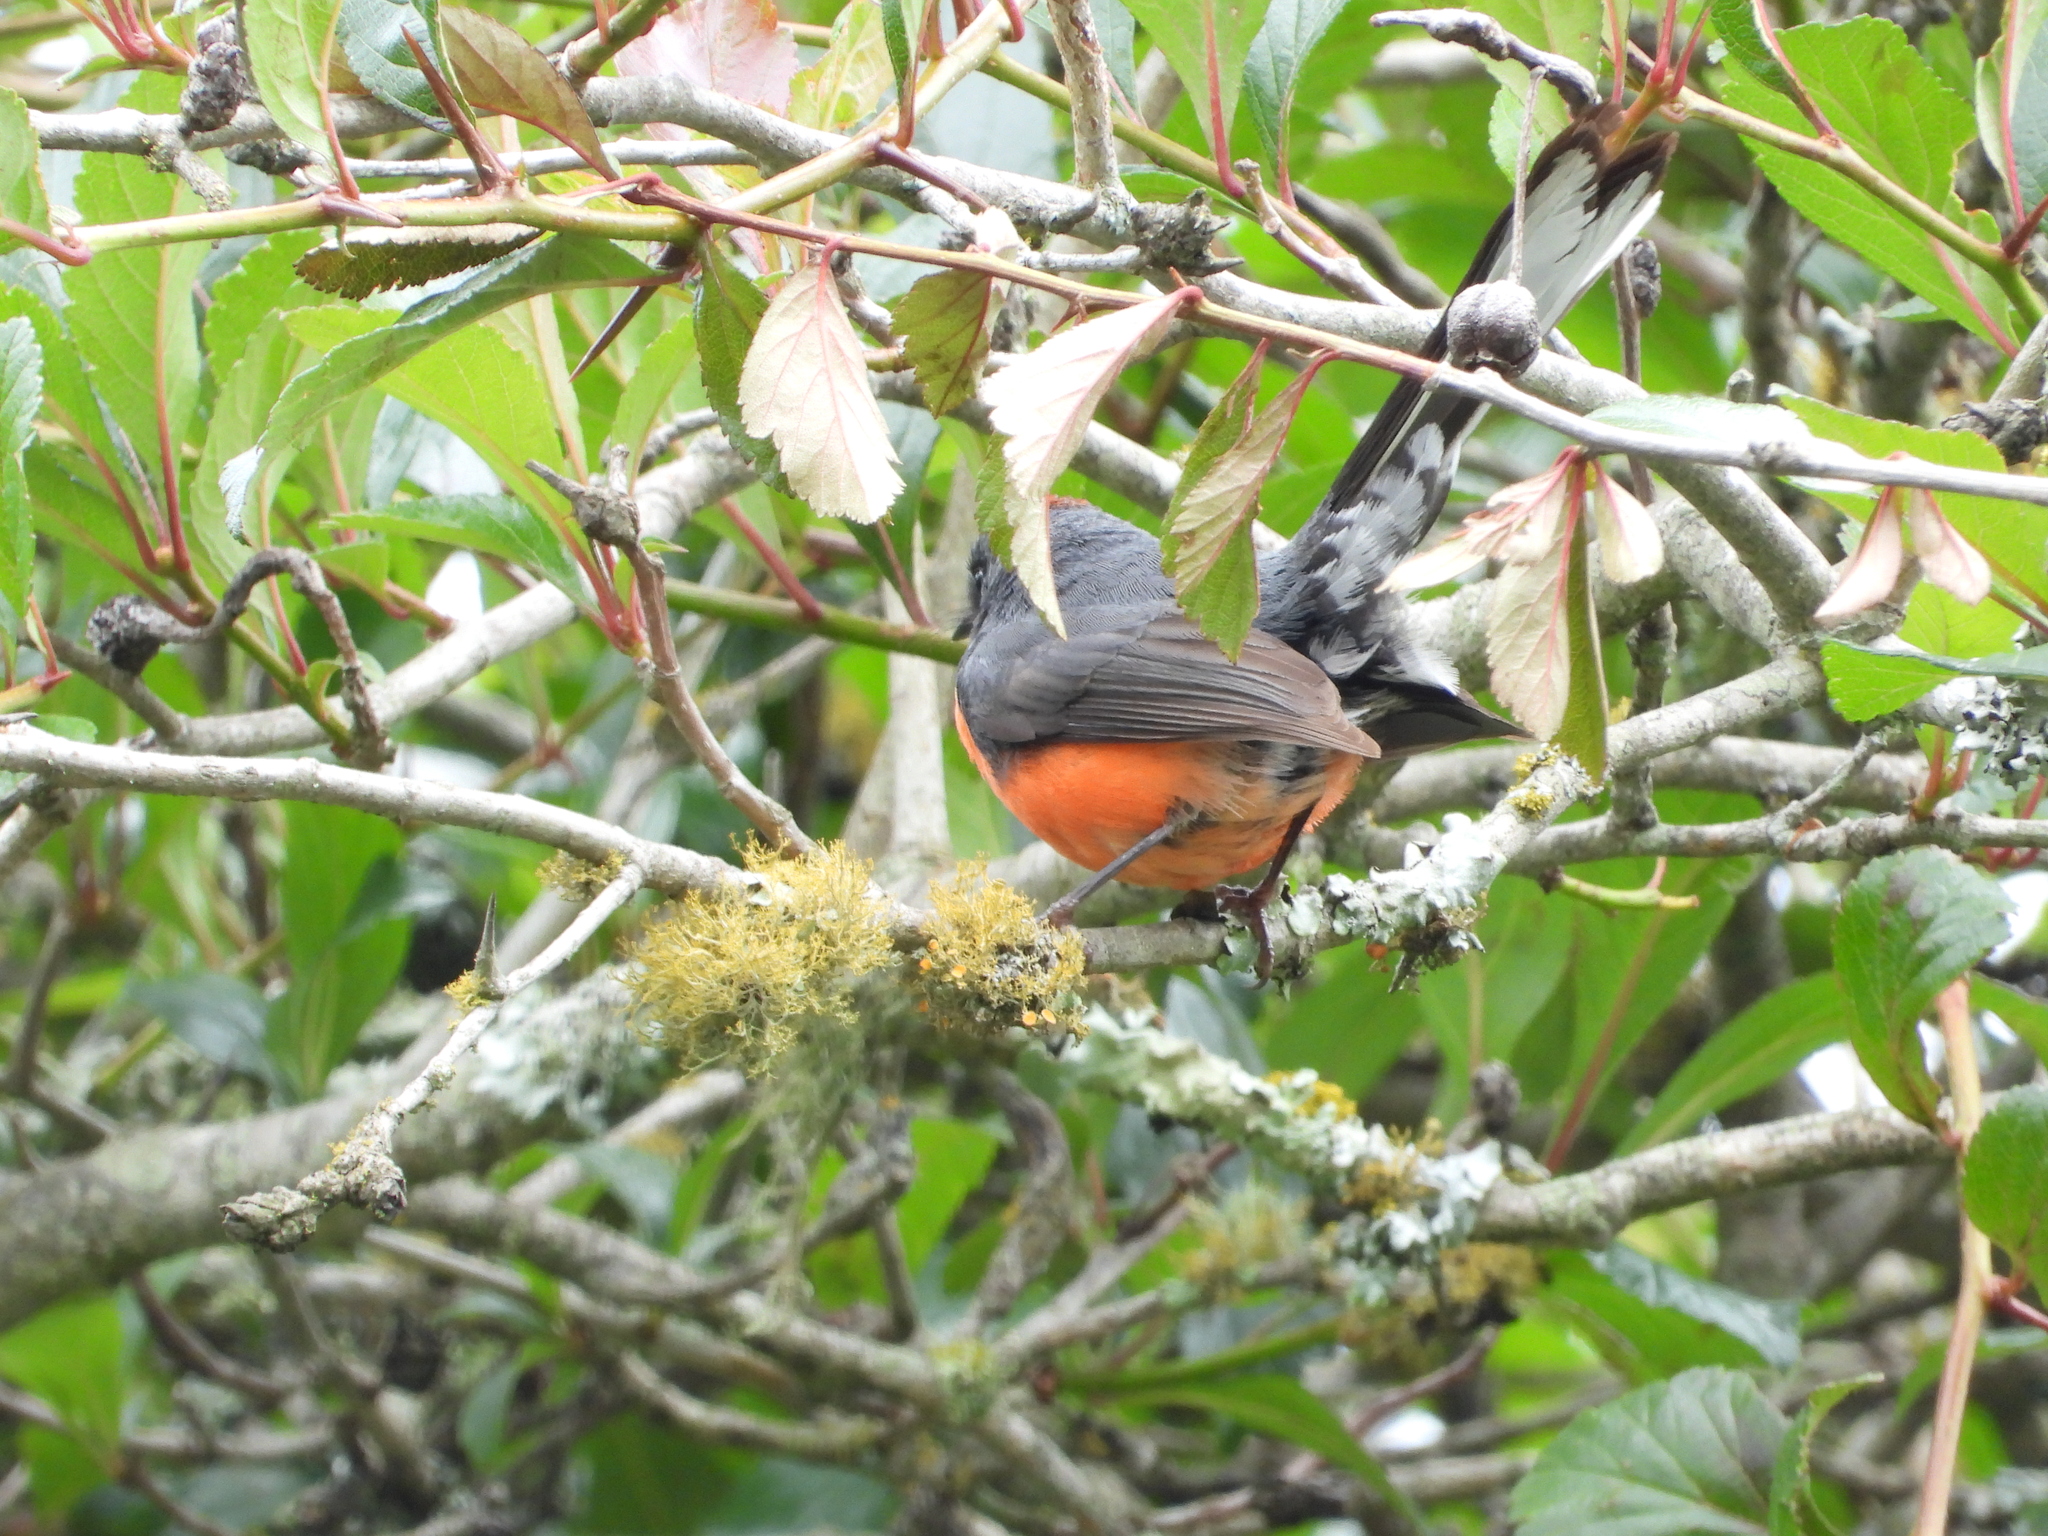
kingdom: Animalia
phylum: Chordata
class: Aves
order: Passeriformes
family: Parulidae
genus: Myioborus
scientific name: Myioborus miniatus
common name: Slate-throated redstart
